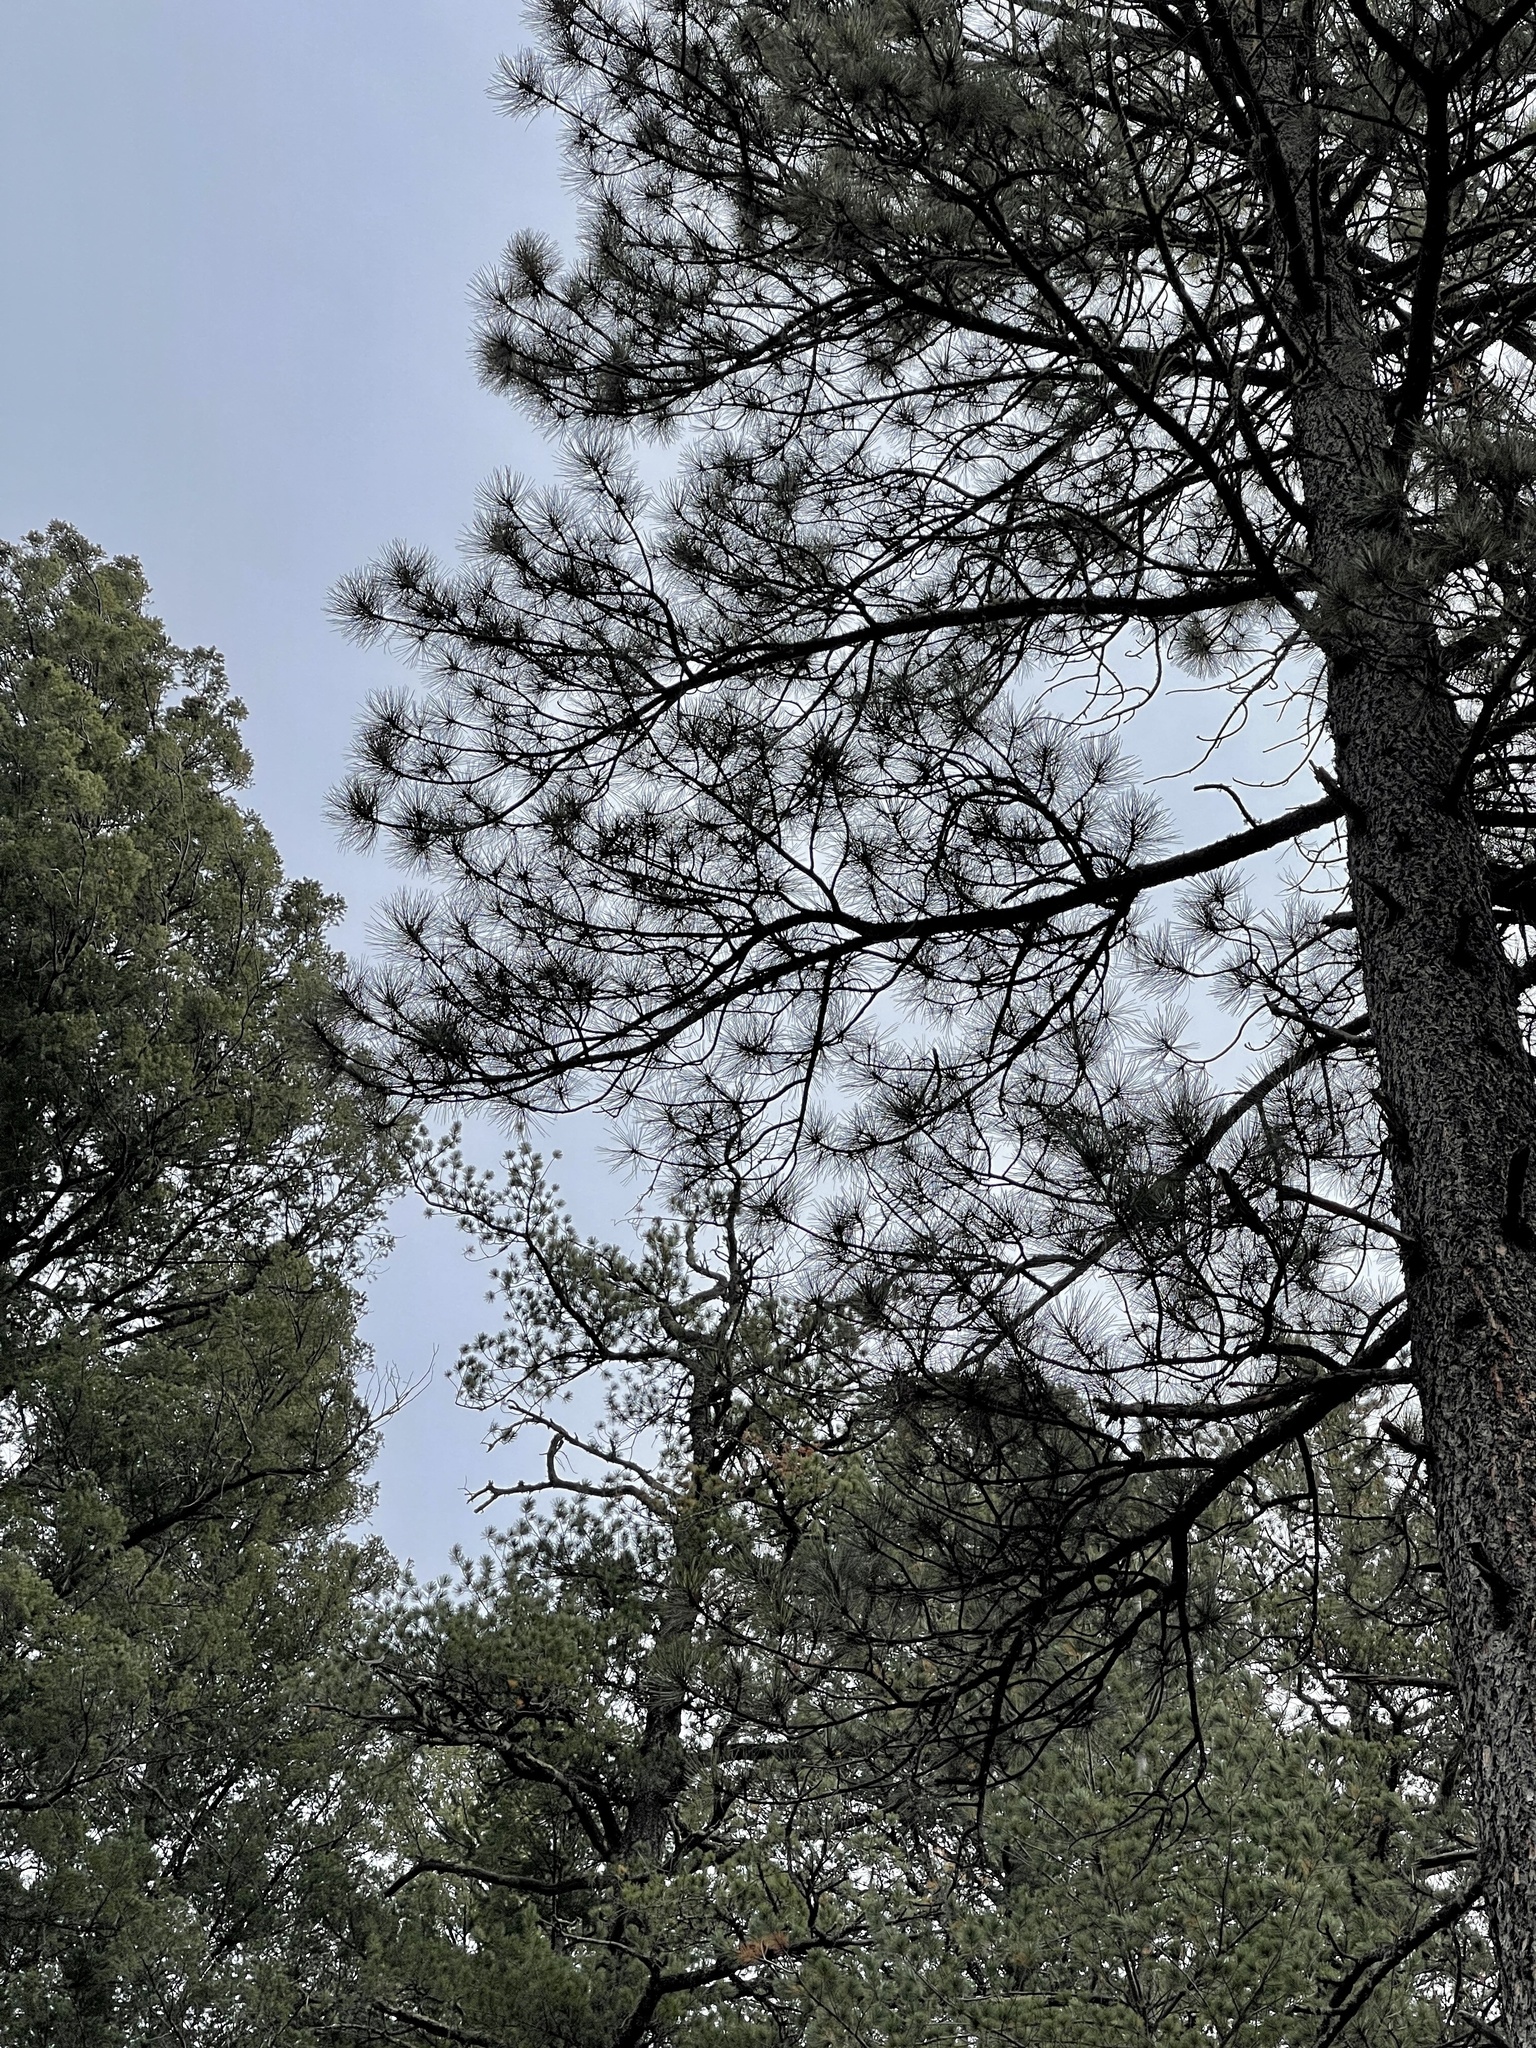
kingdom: Plantae
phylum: Tracheophyta
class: Pinopsida
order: Pinales
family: Pinaceae
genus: Pinus
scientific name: Pinus ponderosa
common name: Western yellow-pine
